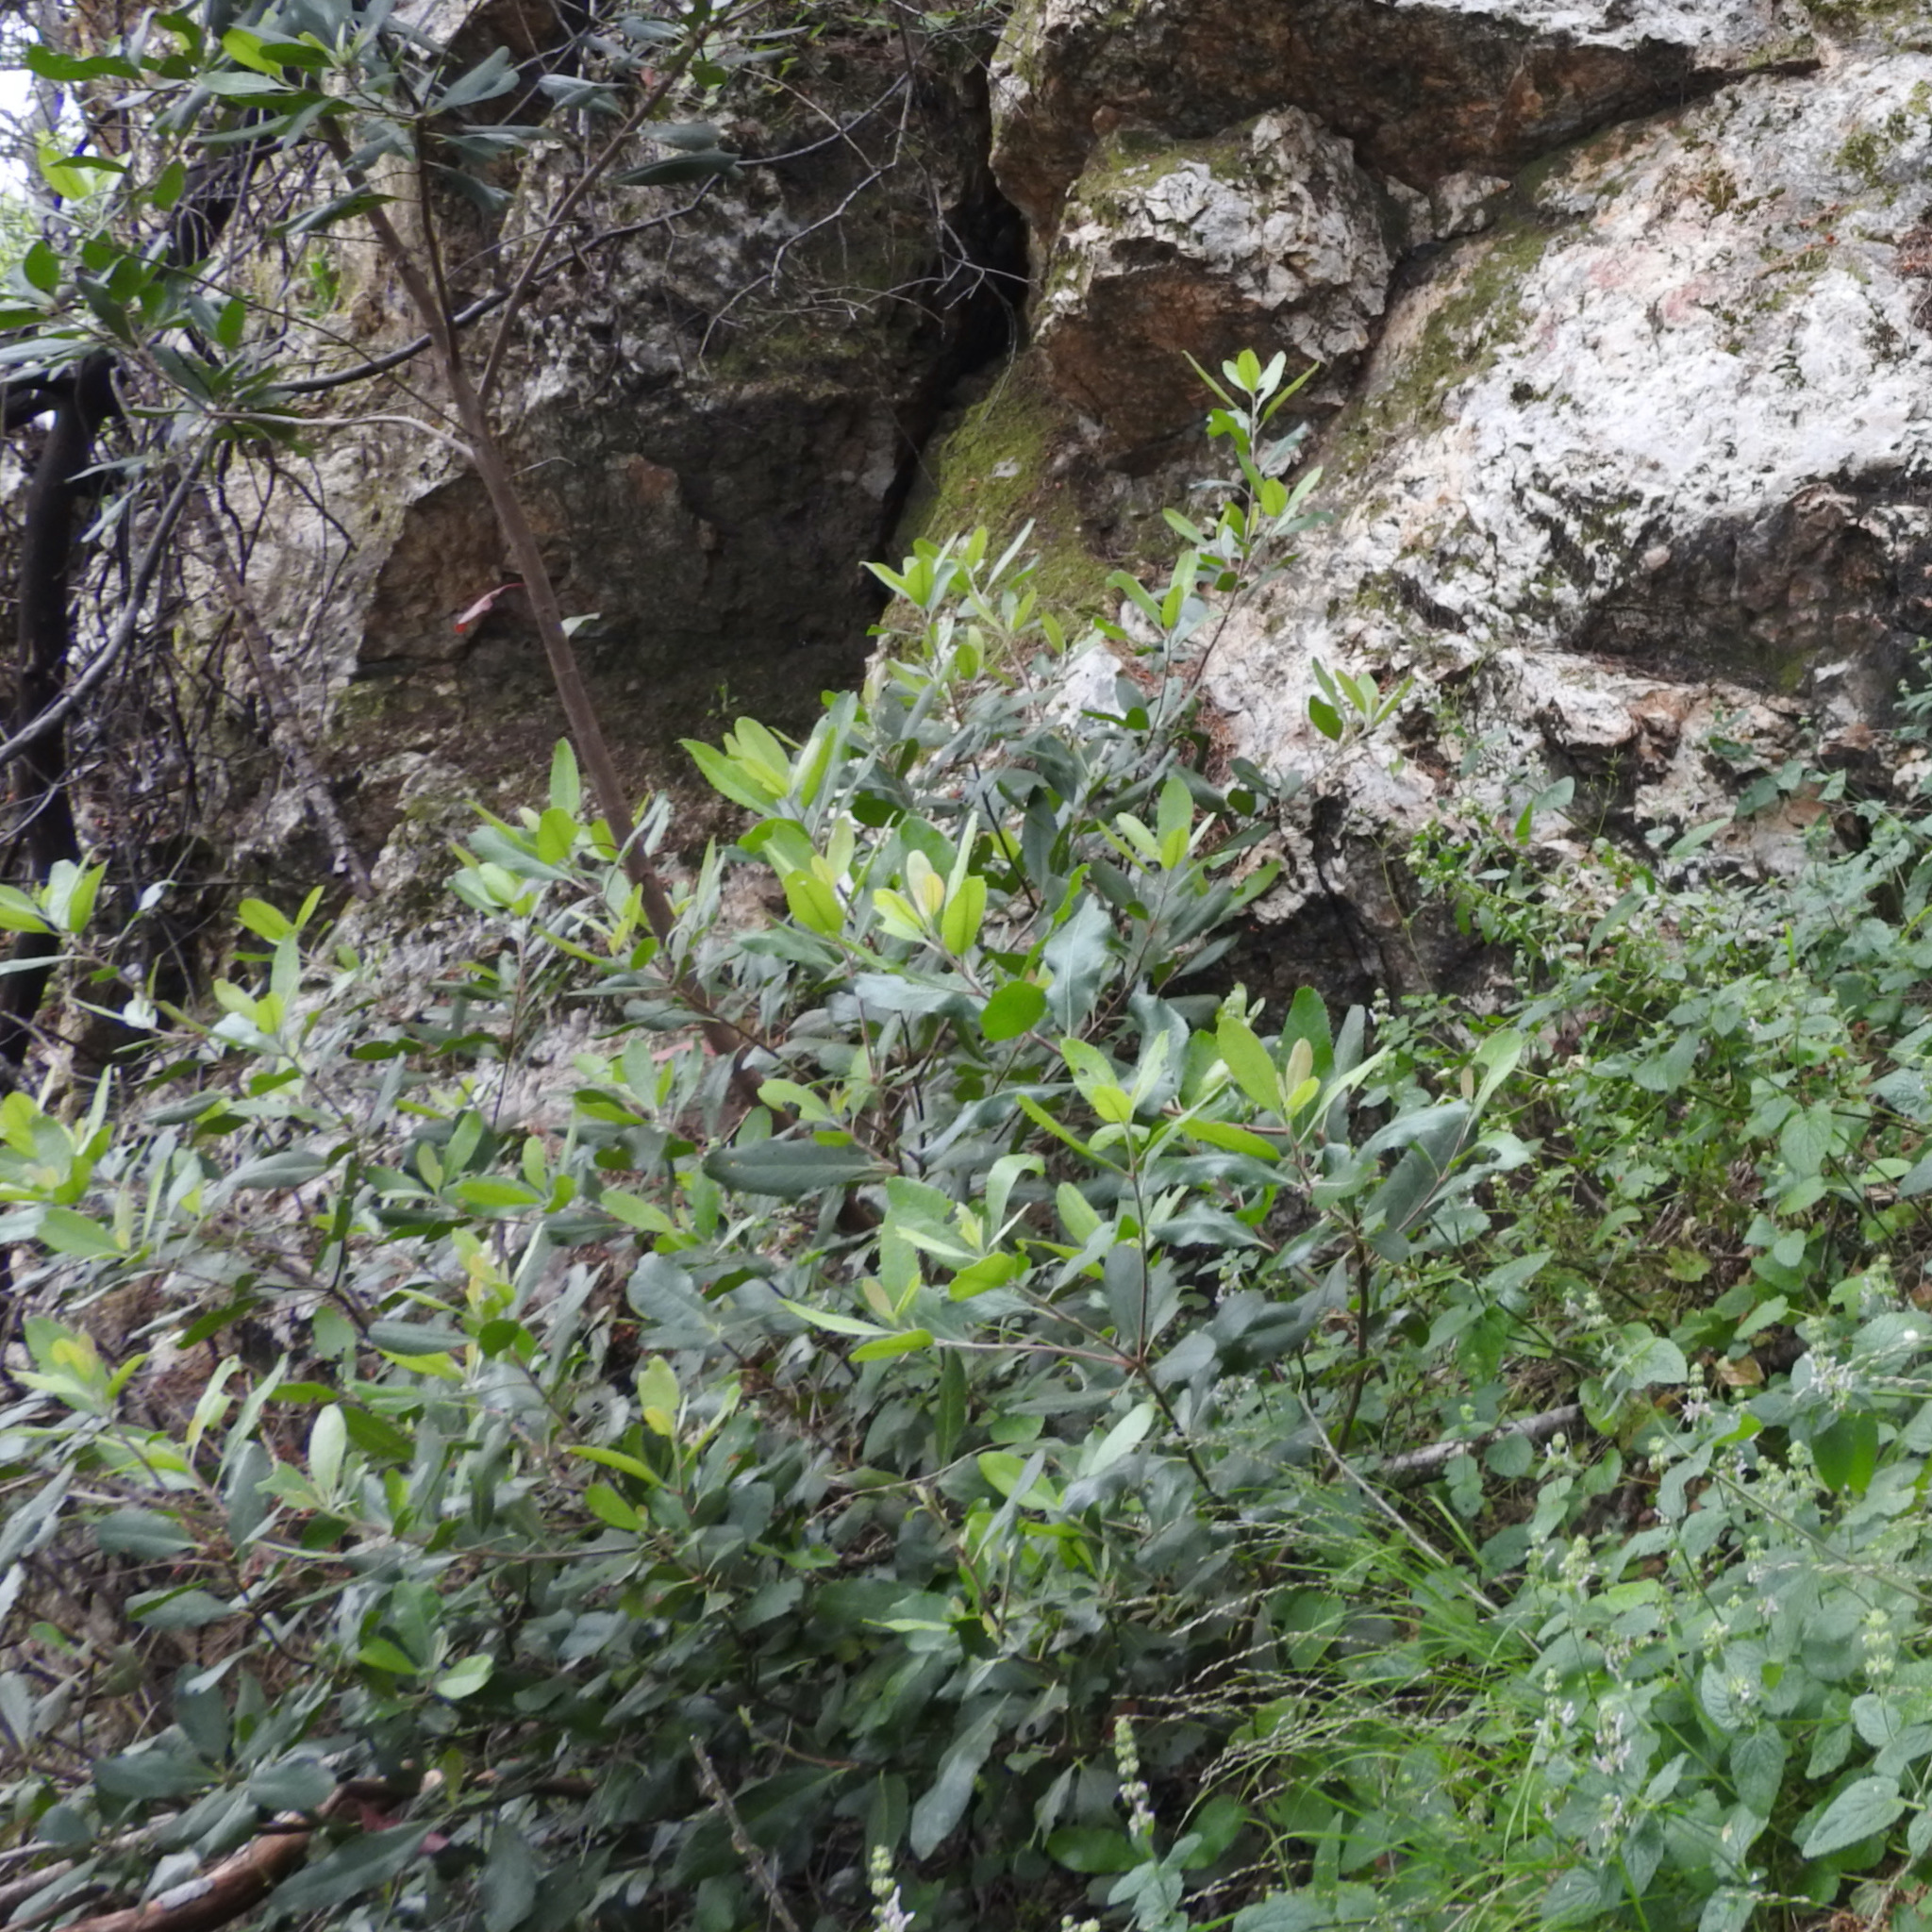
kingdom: Plantae
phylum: Tracheophyta
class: Magnoliopsida
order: Rosales
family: Rosaceae
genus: Heteromeles
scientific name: Heteromeles arbutifolia
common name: California-holly
